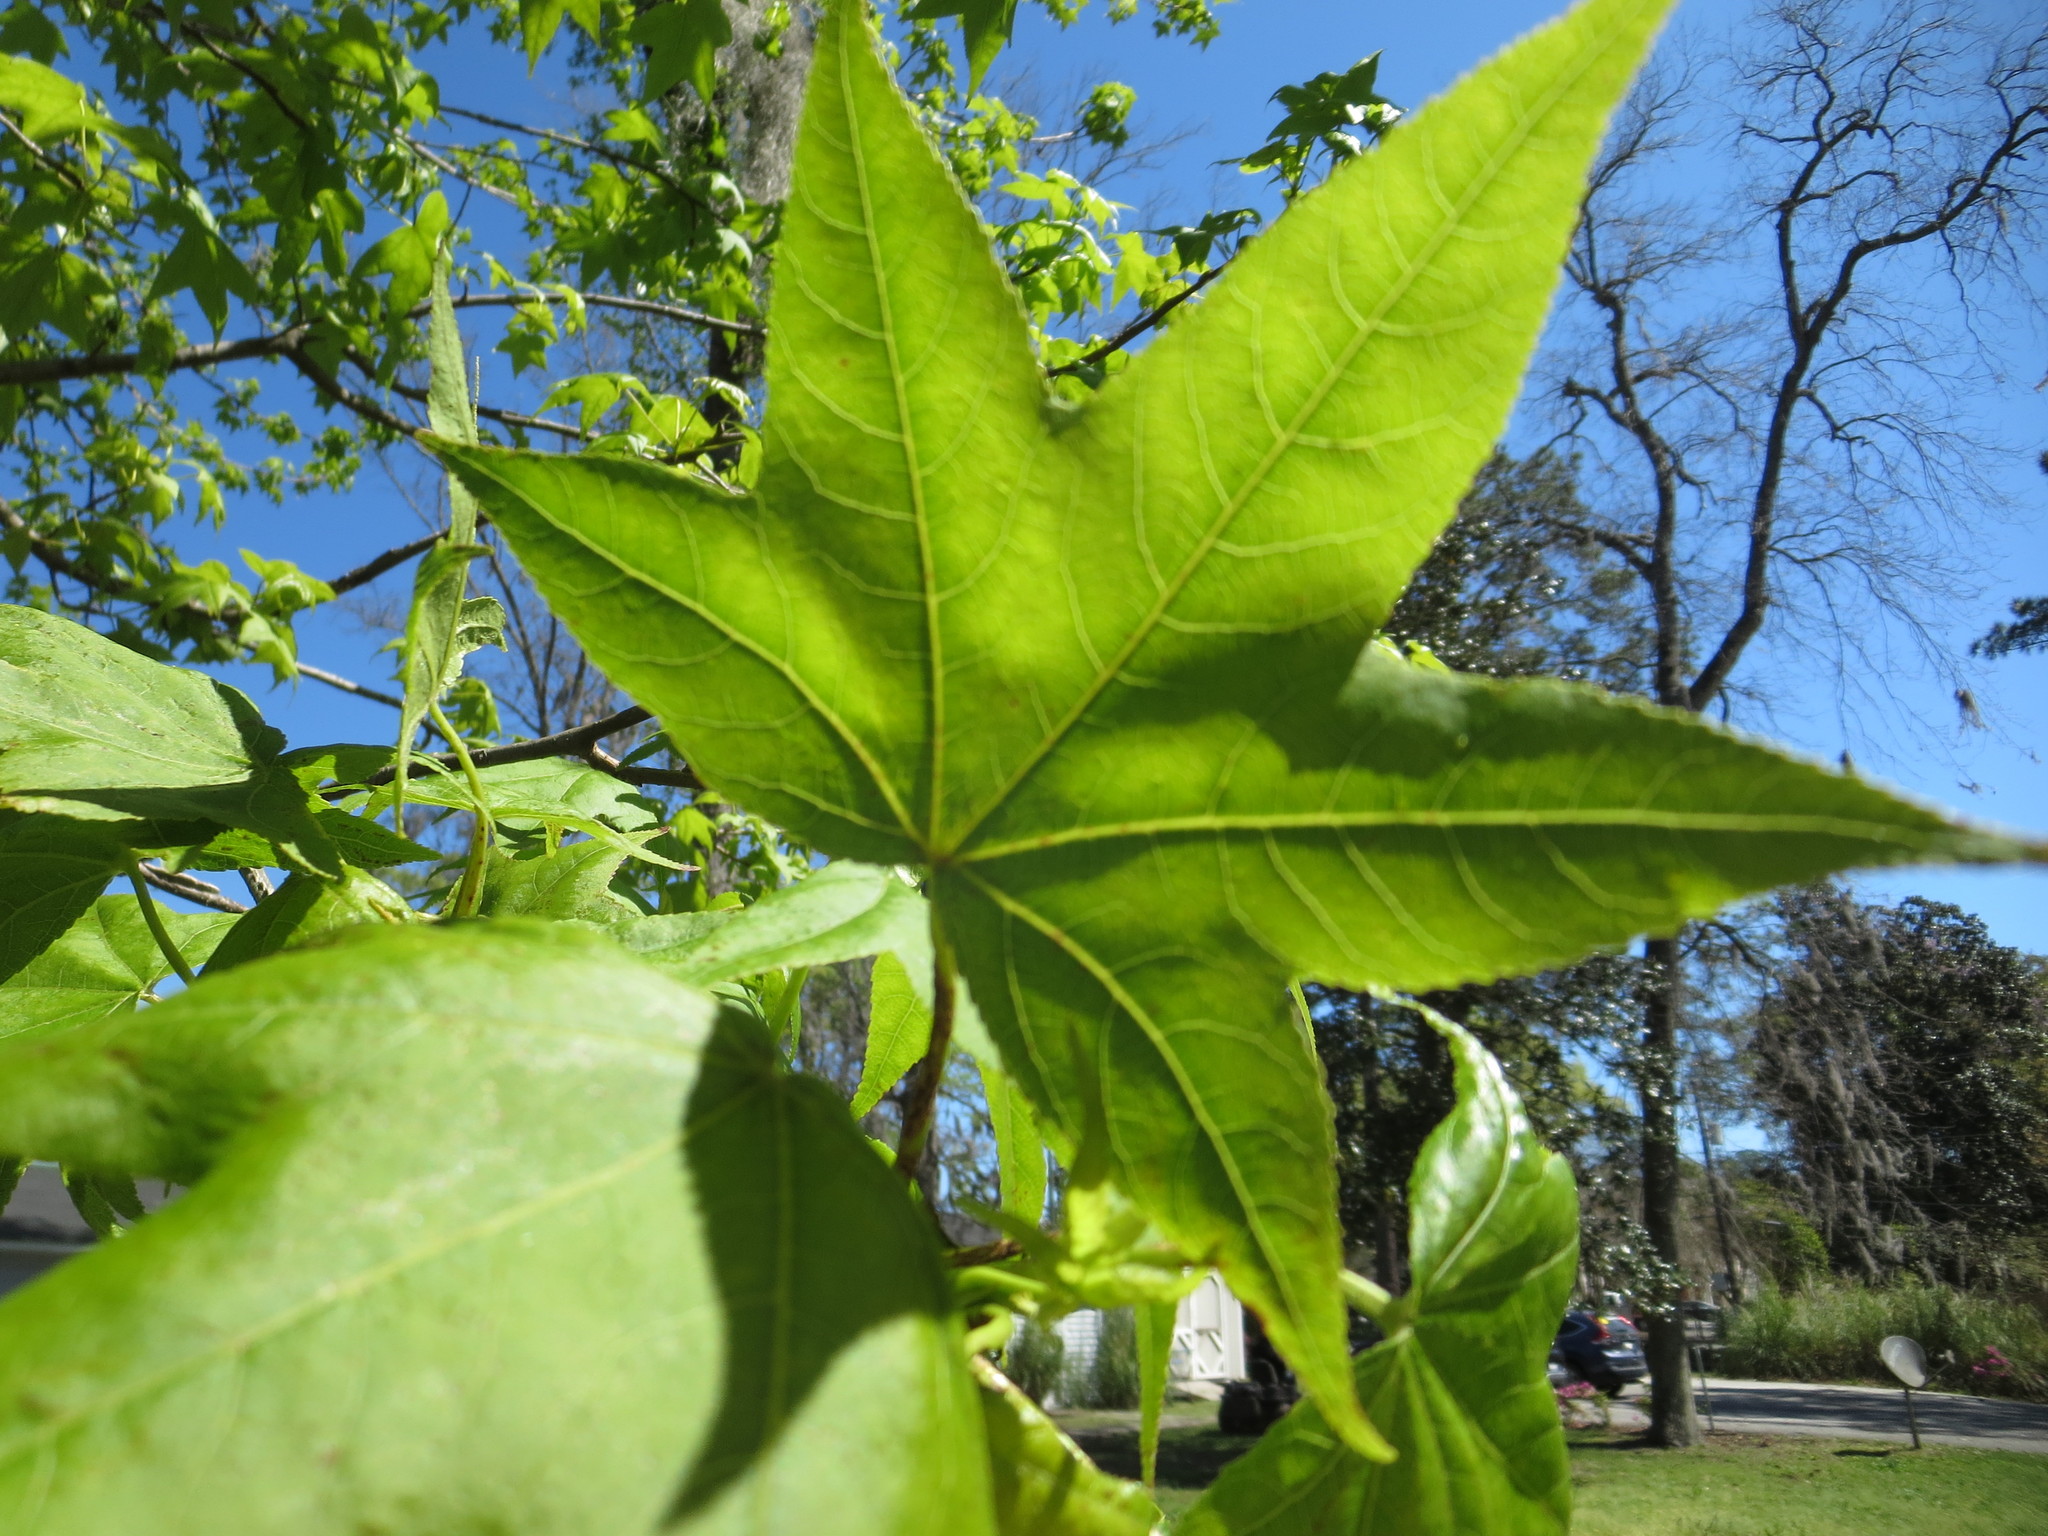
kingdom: Plantae
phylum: Tracheophyta
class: Magnoliopsida
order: Saxifragales
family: Altingiaceae
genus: Liquidambar
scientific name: Liquidambar styraciflua
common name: Sweet gum
